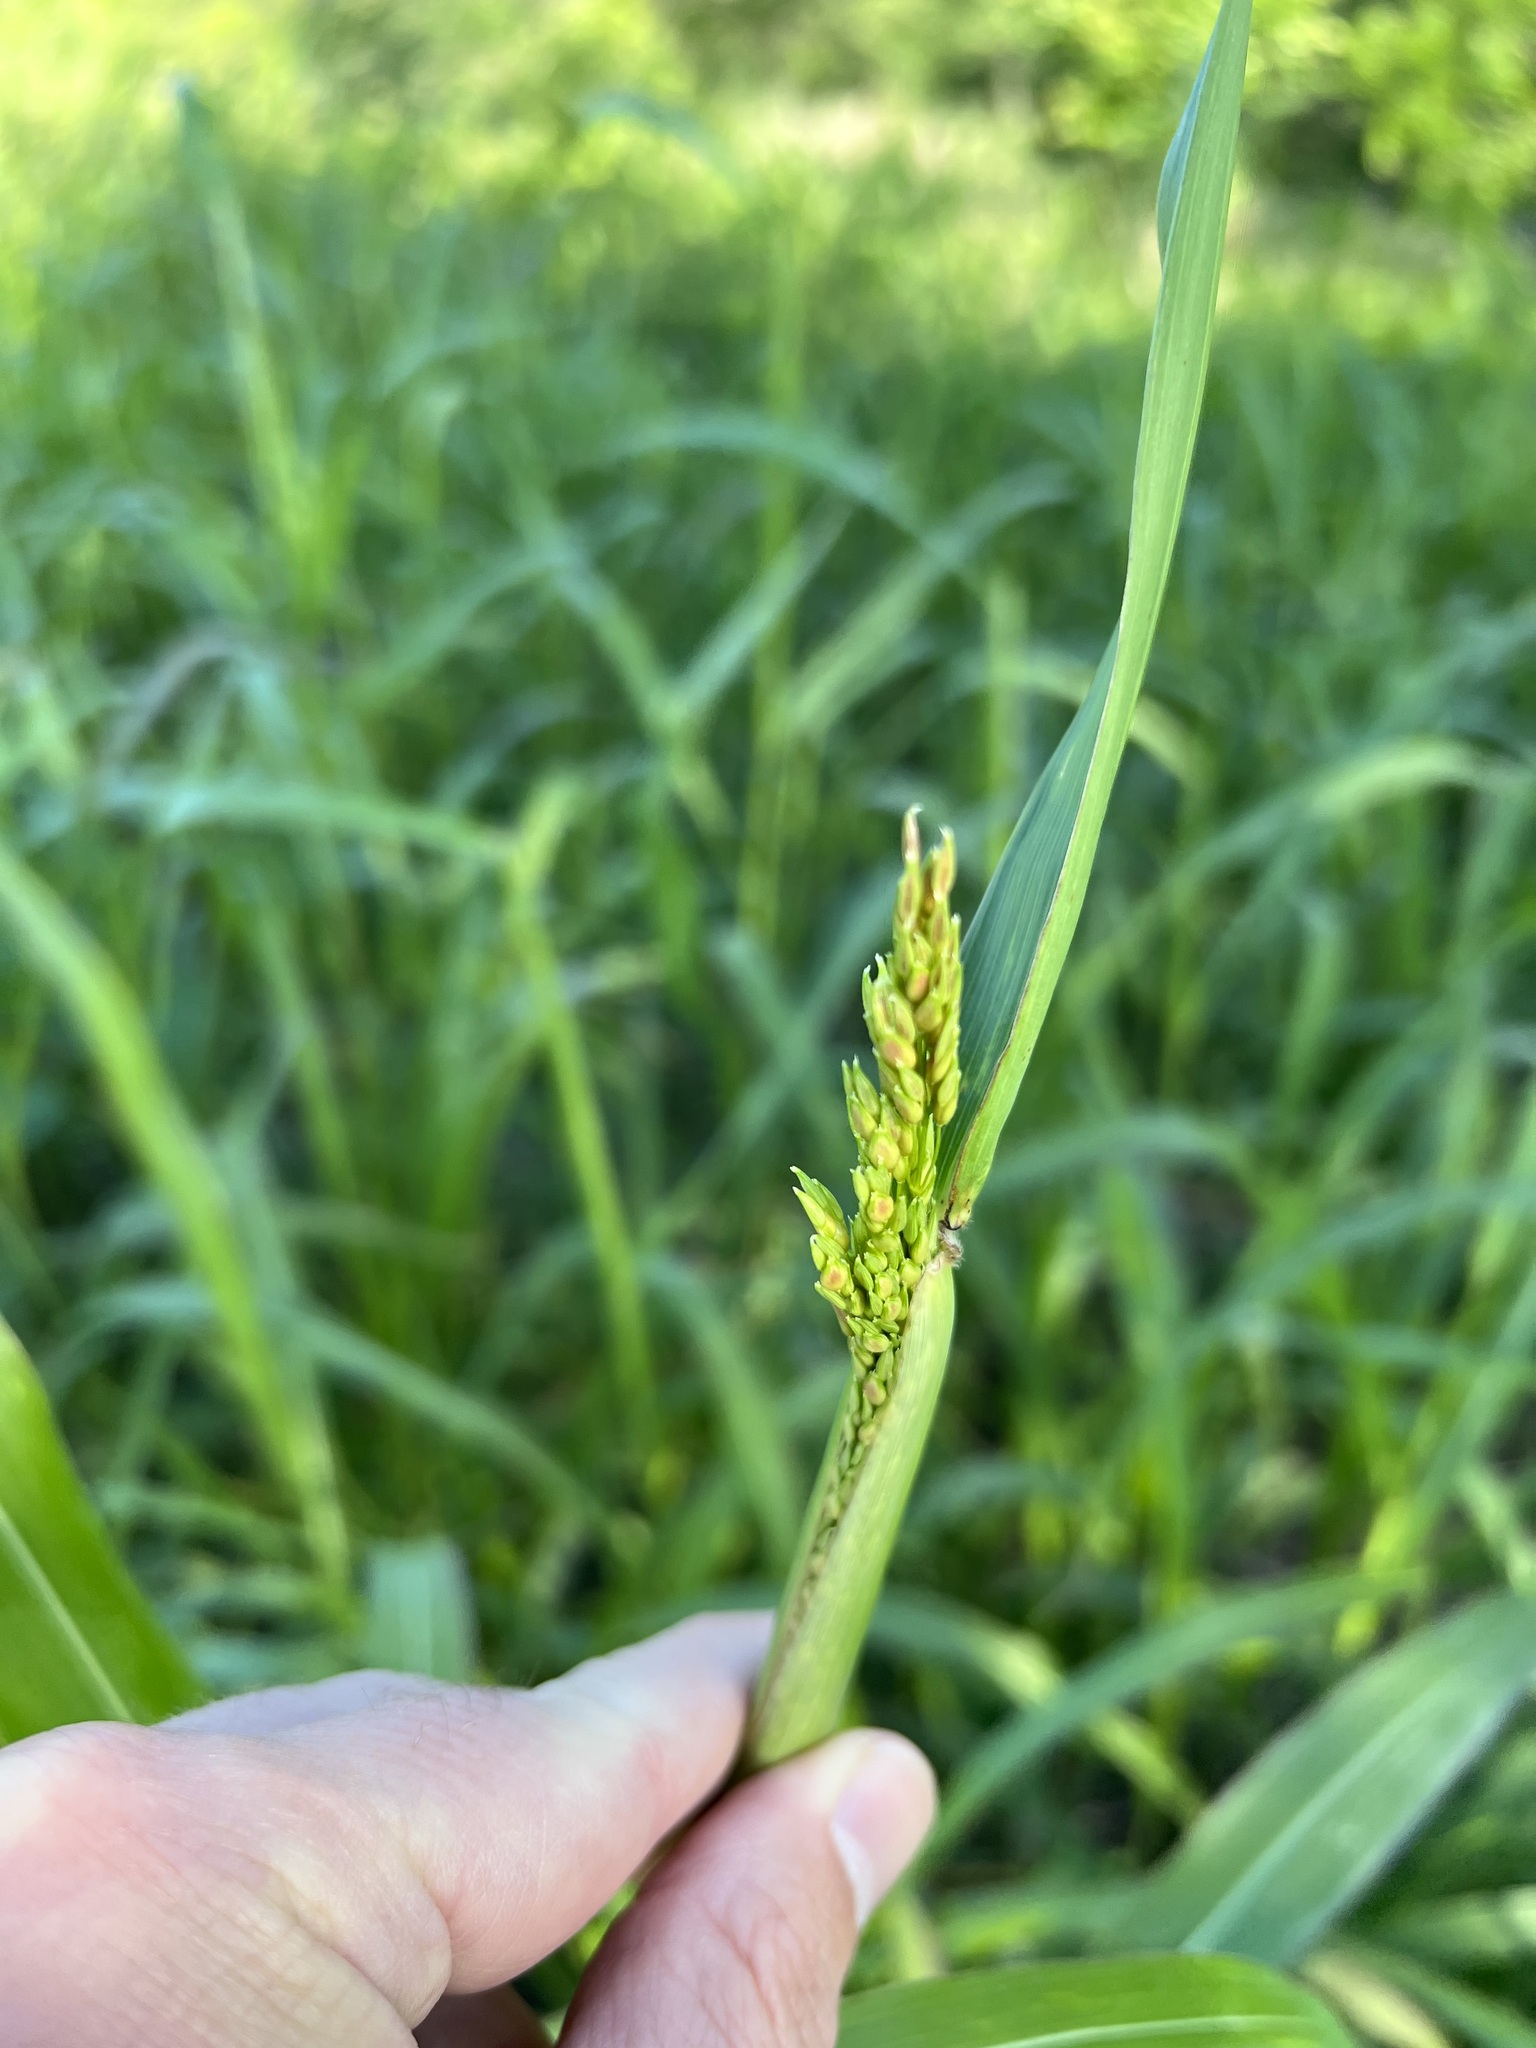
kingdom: Plantae
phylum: Tracheophyta
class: Liliopsida
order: Poales
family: Poaceae
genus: Sorghum
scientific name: Sorghum halepense
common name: Johnson-grass
